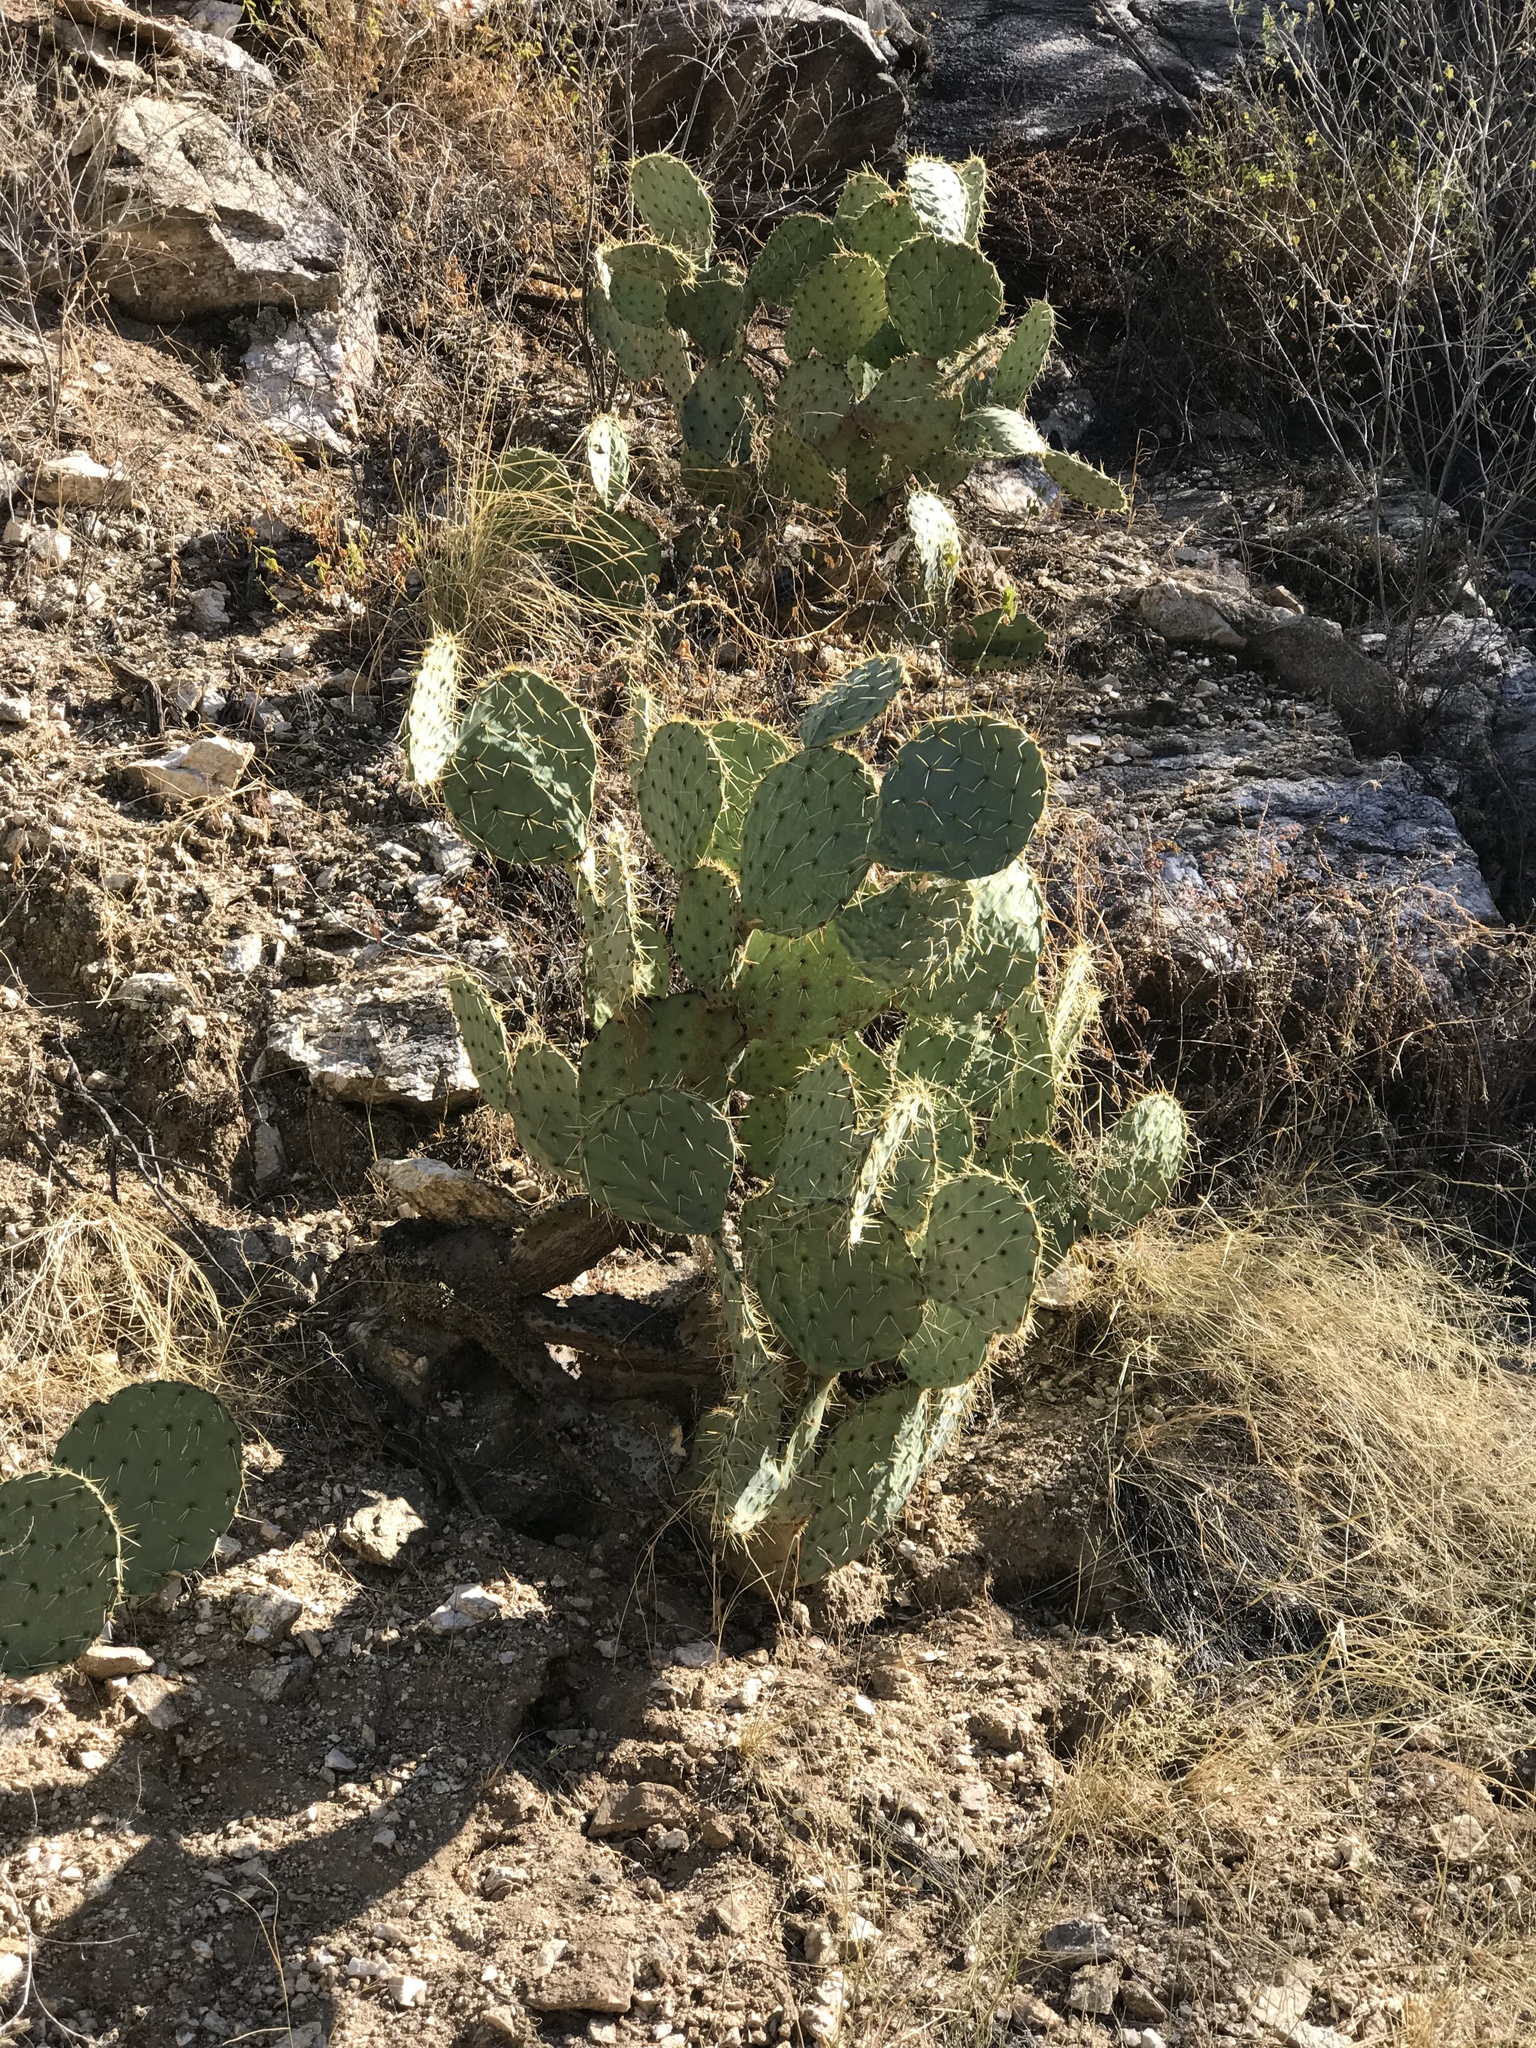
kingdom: Plantae
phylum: Tracheophyta
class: Magnoliopsida
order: Caryophyllales
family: Cactaceae
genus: Opuntia
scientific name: Opuntia engelmannii
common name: Cactus-apple
